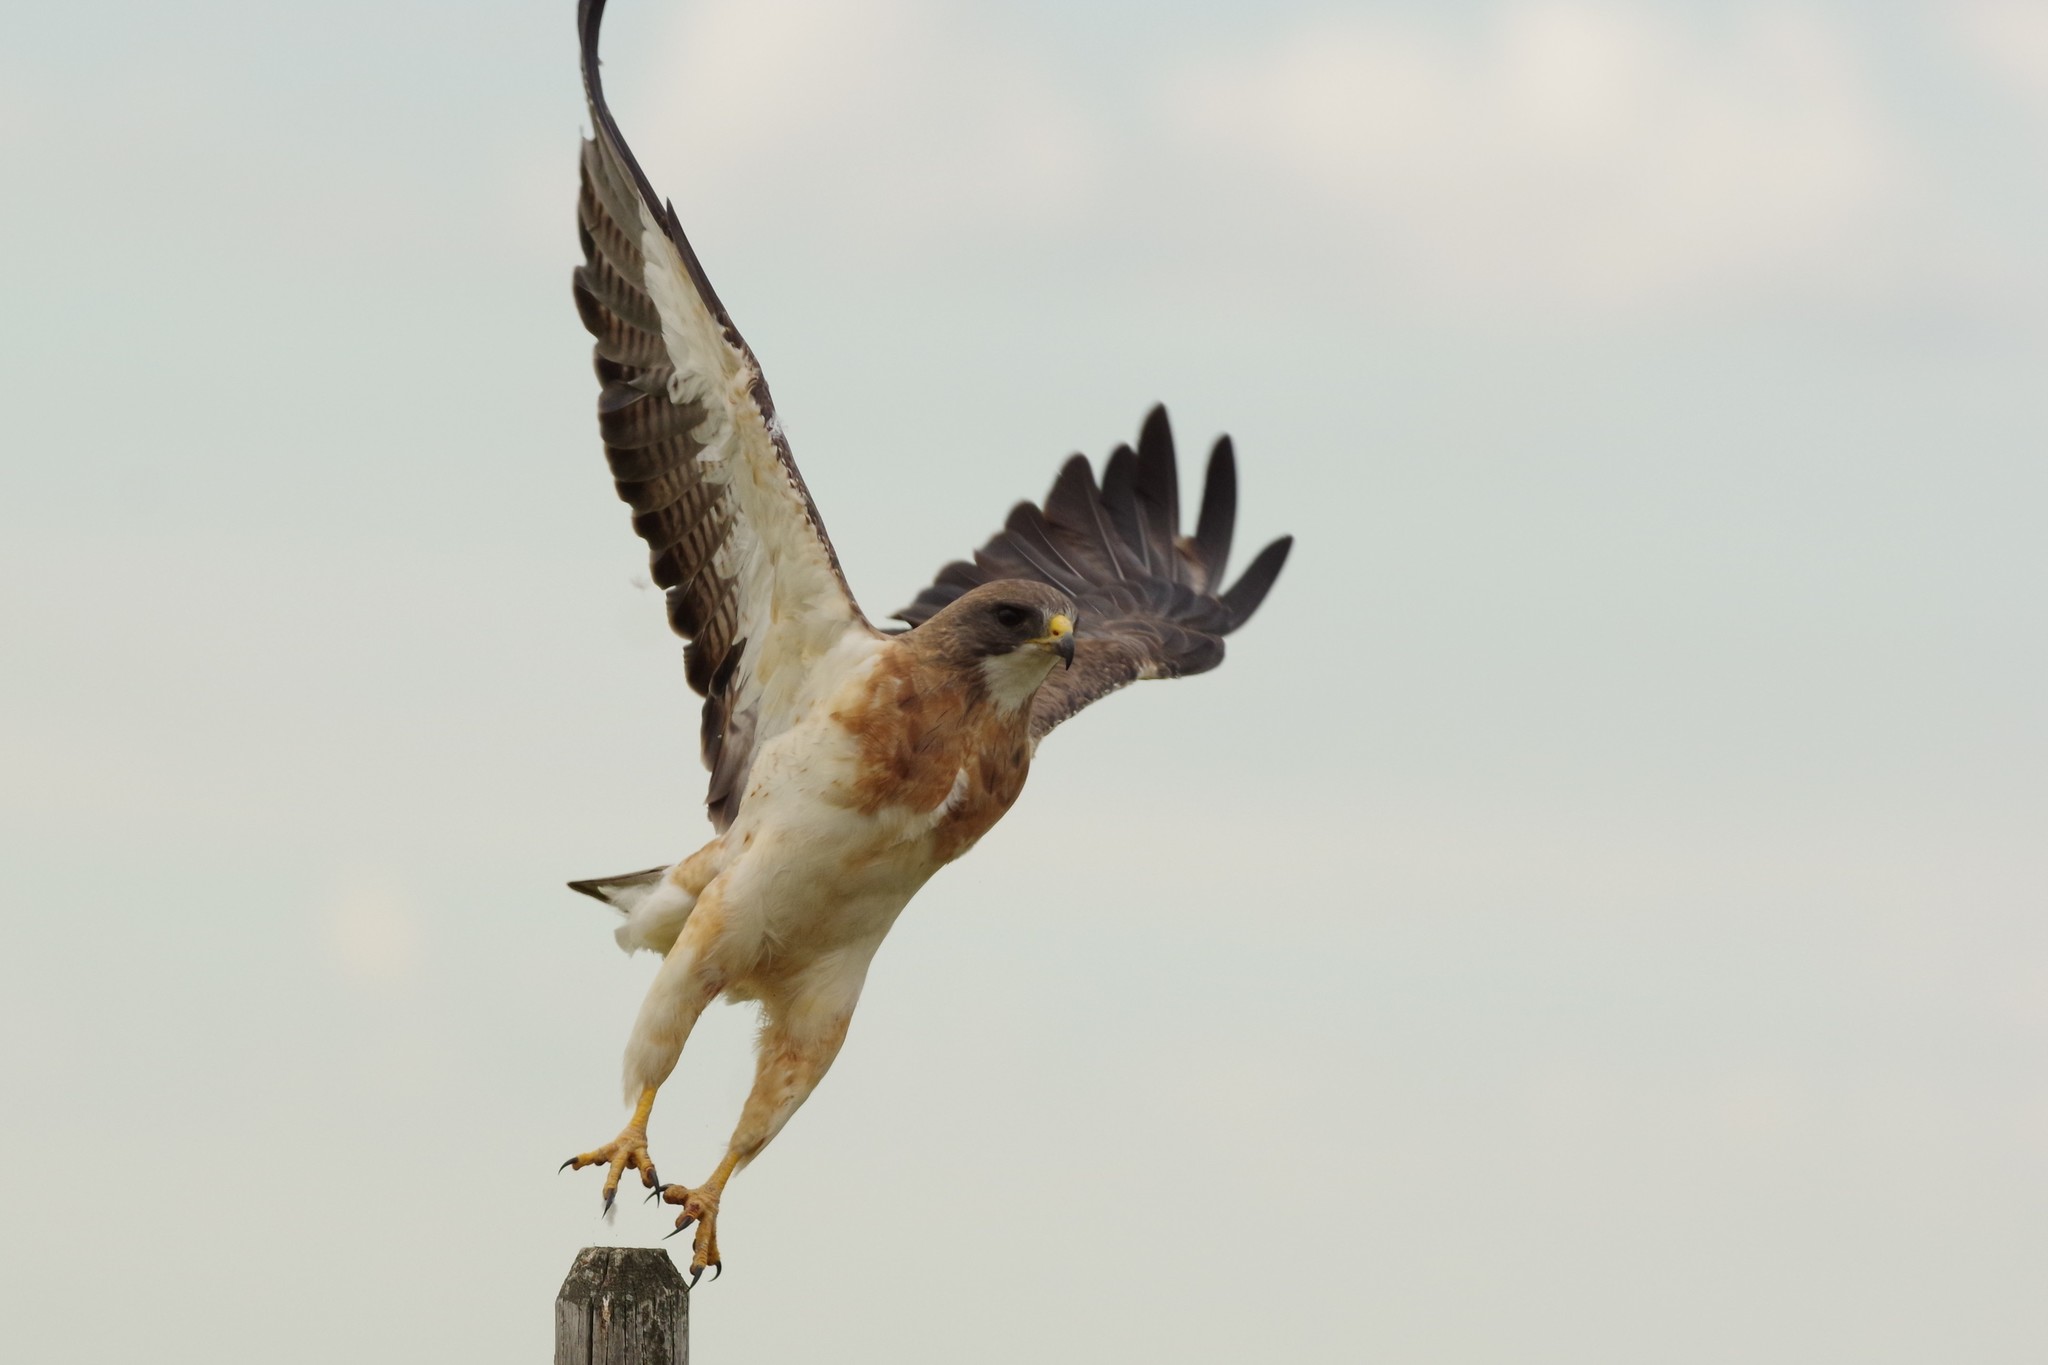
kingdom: Animalia
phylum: Chordata
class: Aves
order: Accipitriformes
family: Accipitridae
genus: Buteo
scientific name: Buteo swainsoni
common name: Swainson's hawk
